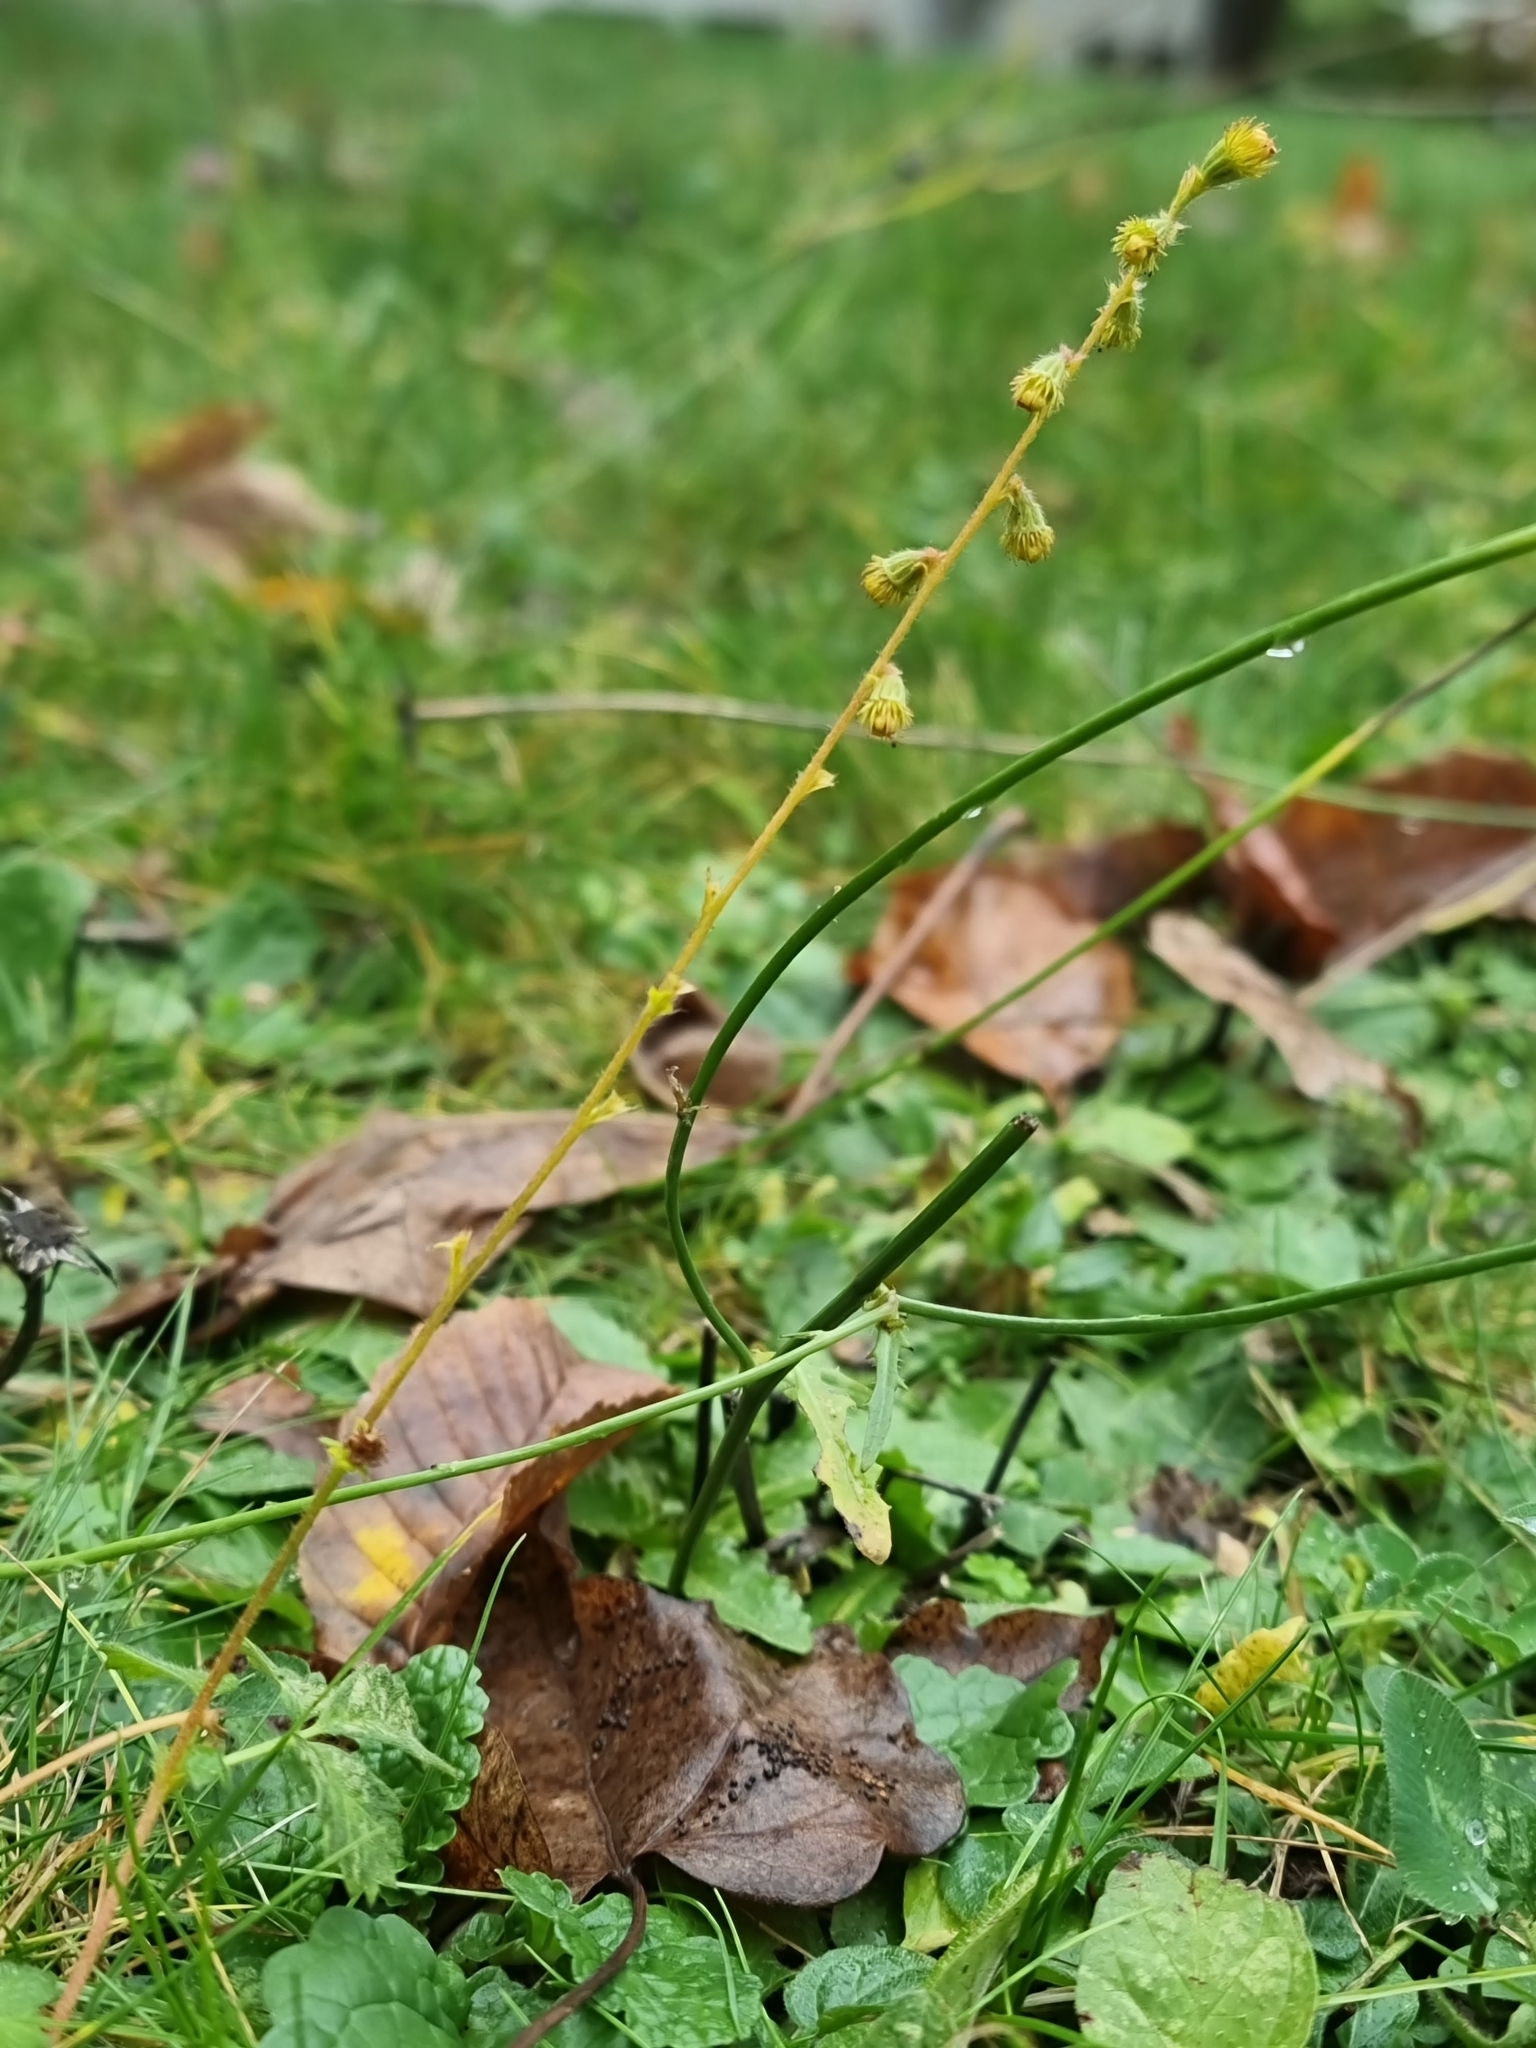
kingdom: Plantae
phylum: Tracheophyta
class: Magnoliopsida
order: Rosales
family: Rosaceae
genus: Agrimonia
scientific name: Agrimonia eupatoria
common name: Agrimony
